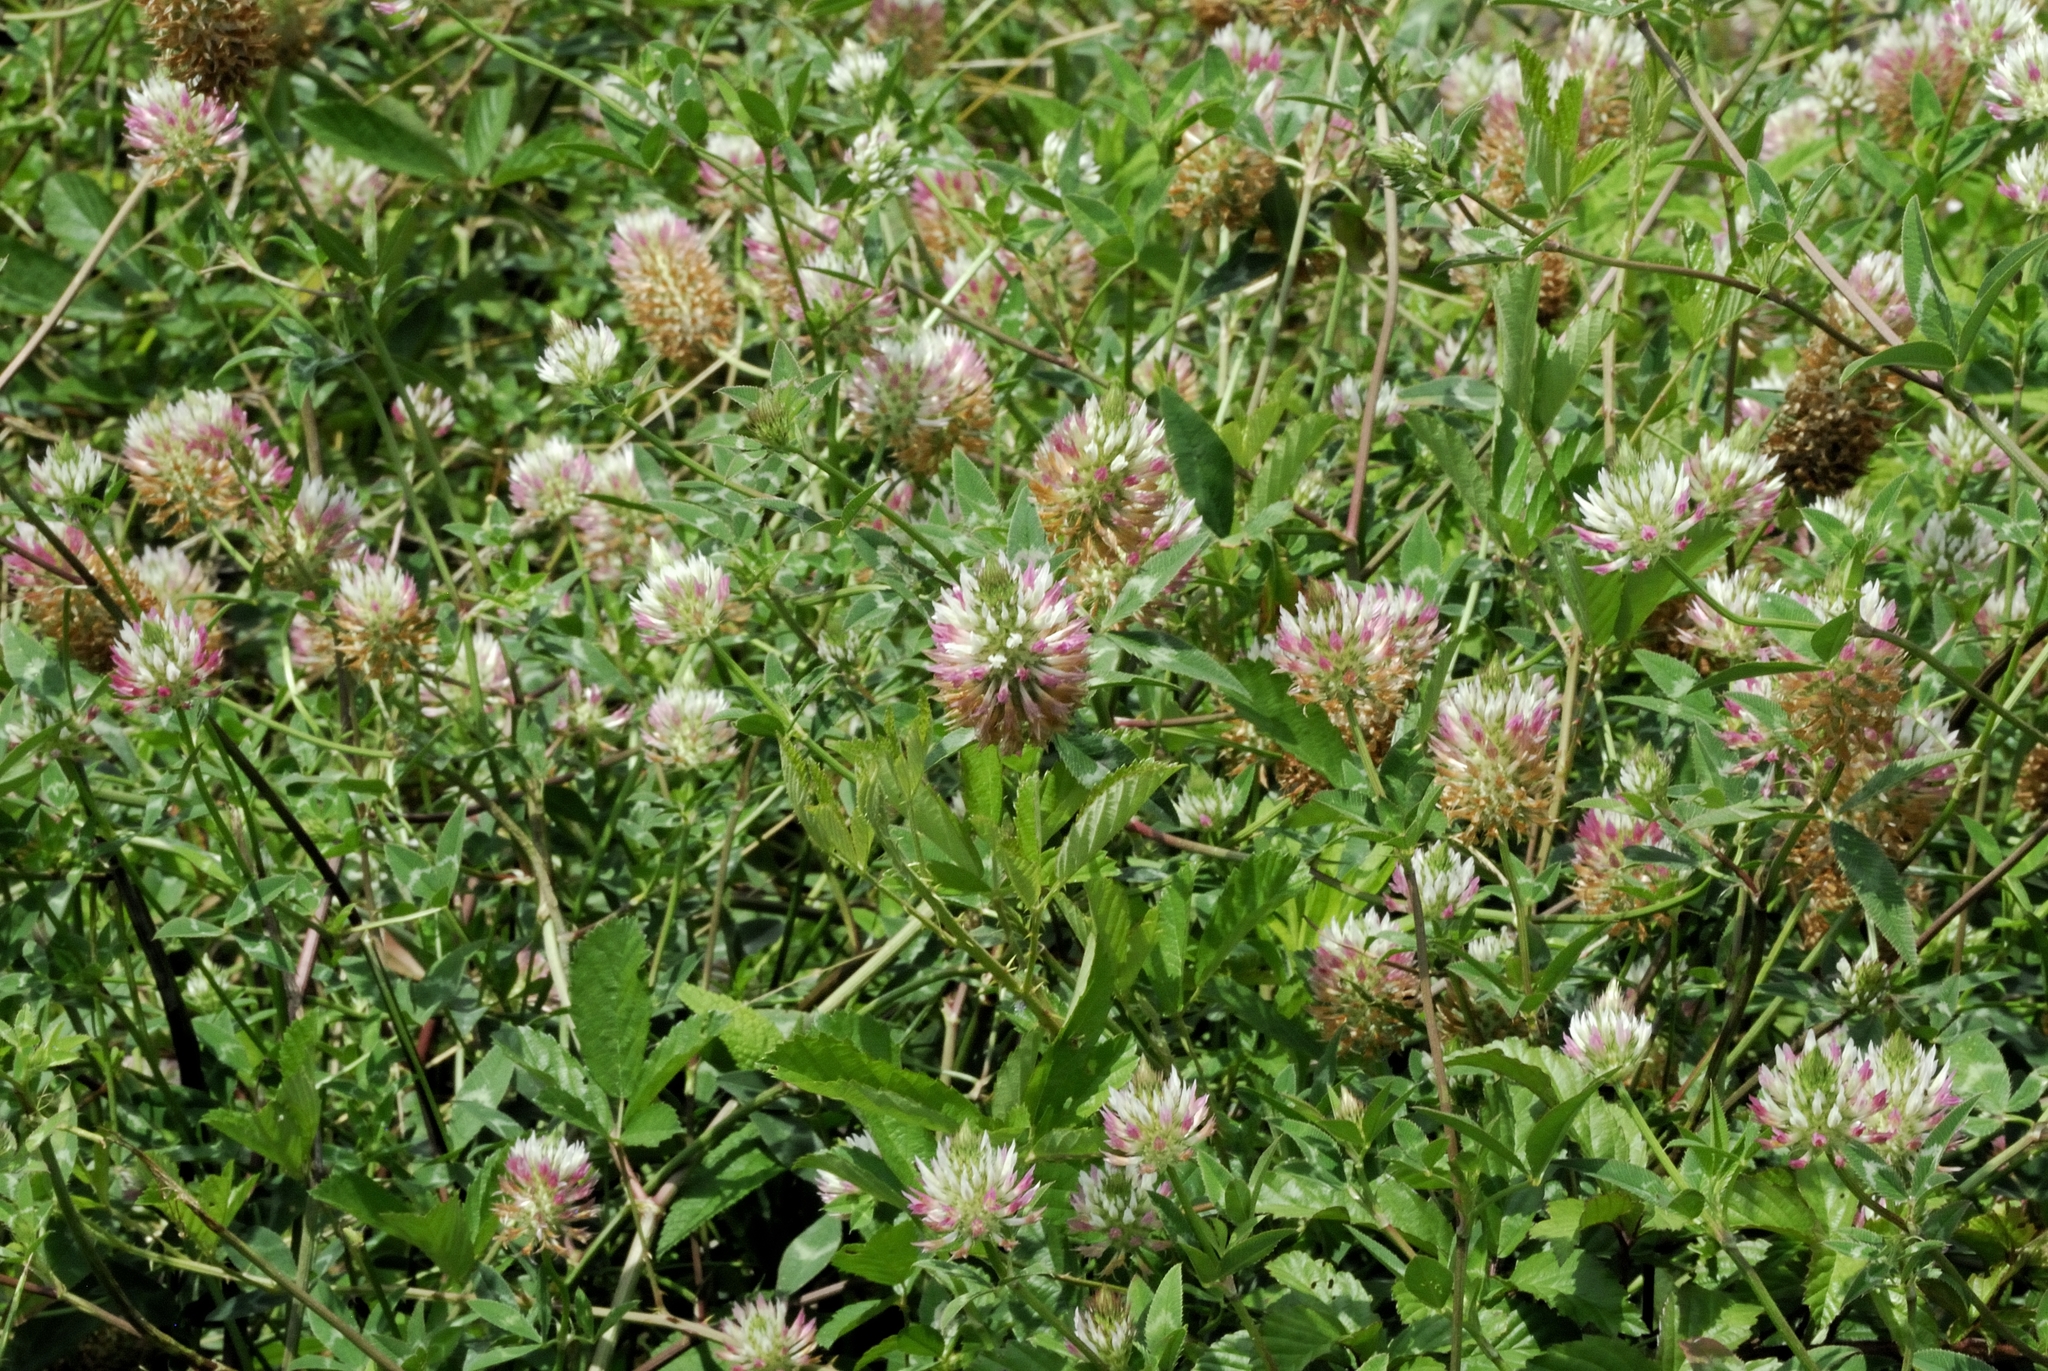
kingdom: Plantae
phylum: Tracheophyta
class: Magnoliopsida
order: Fabales
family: Fabaceae
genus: Trifolium
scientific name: Trifolium vesiculosum
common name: Arrowleaf clover
